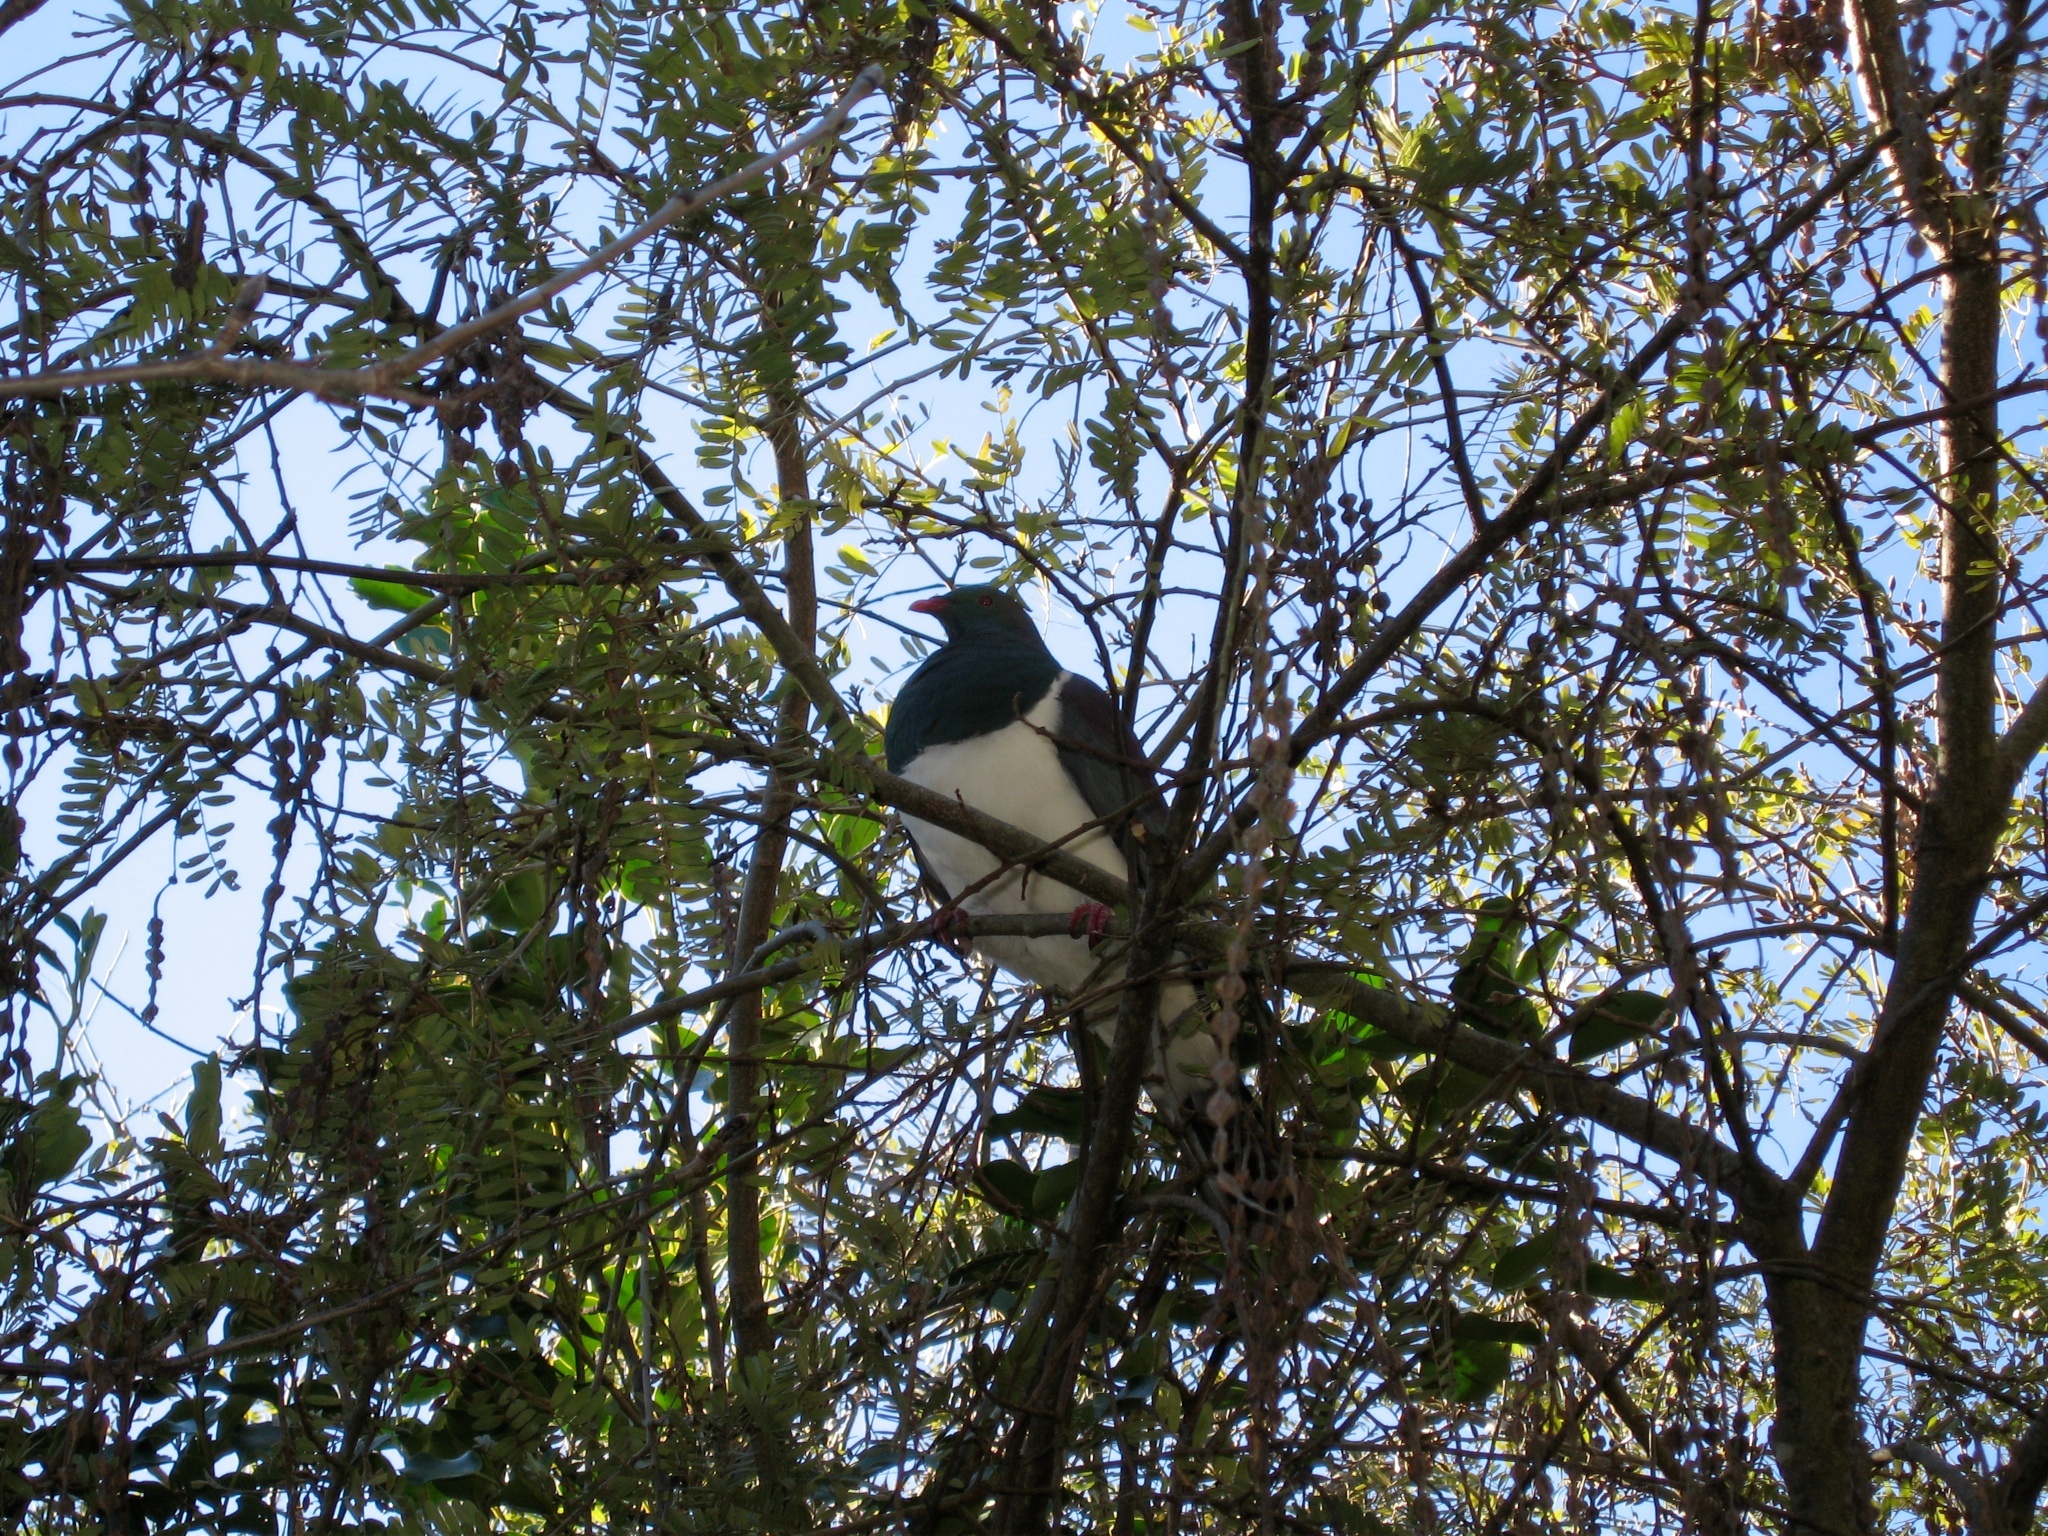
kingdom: Animalia
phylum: Chordata
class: Aves
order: Columbiformes
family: Columbidae
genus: Hemiphaga
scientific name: Hemiphaga novaeseelandiae
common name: New zealand pigeon
